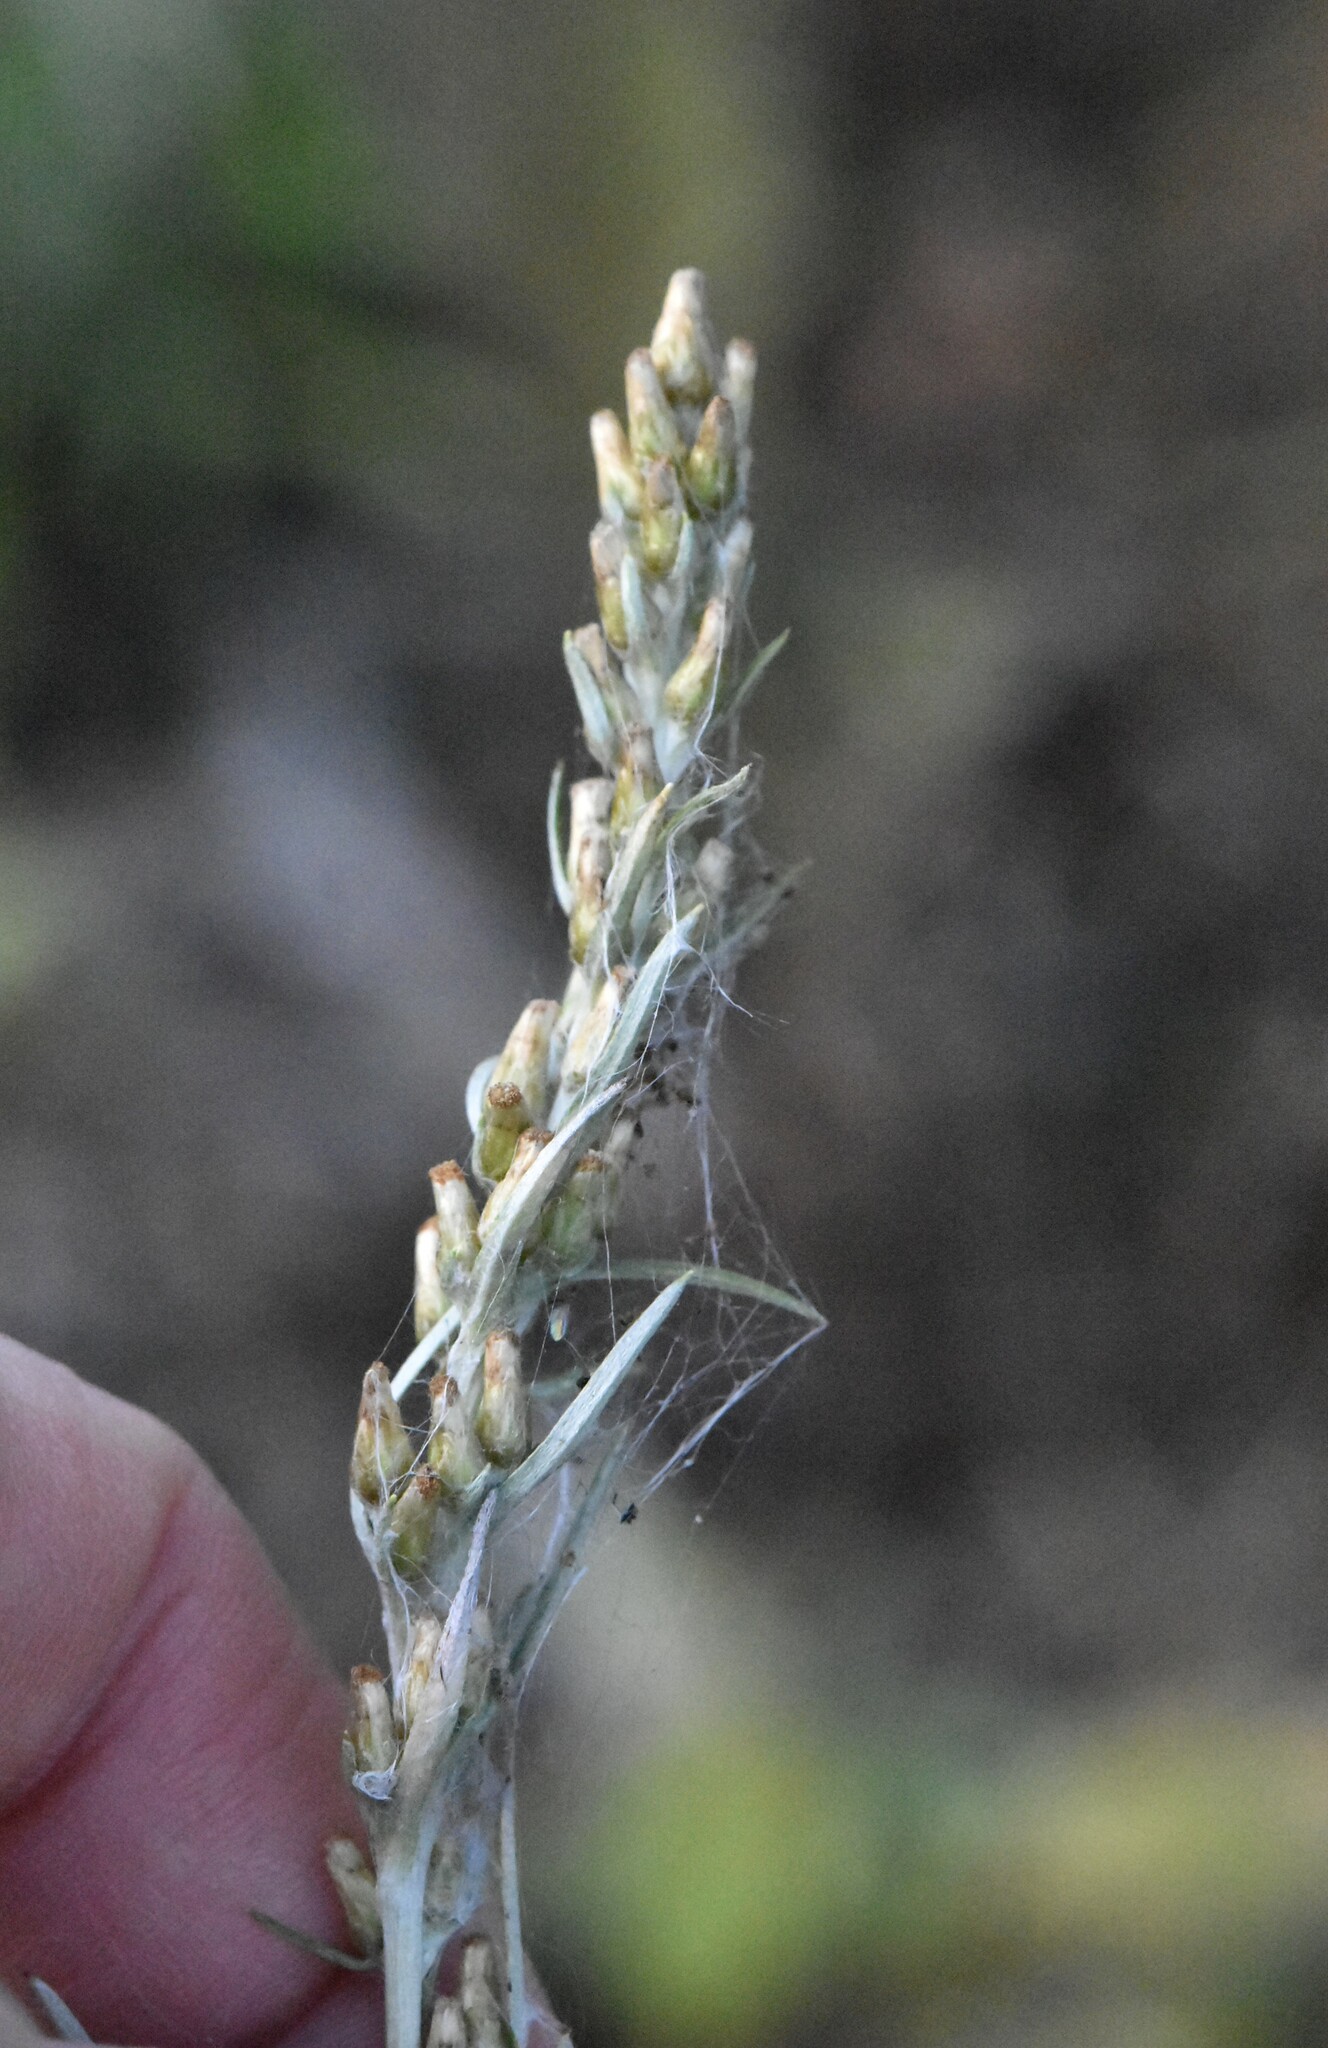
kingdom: Plantae
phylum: Tracheophyta
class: Magnoliopsida
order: Asterales
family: Asteraceae
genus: Omalotheca
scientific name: Omalotheca sylvatica
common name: Heath cudweed
